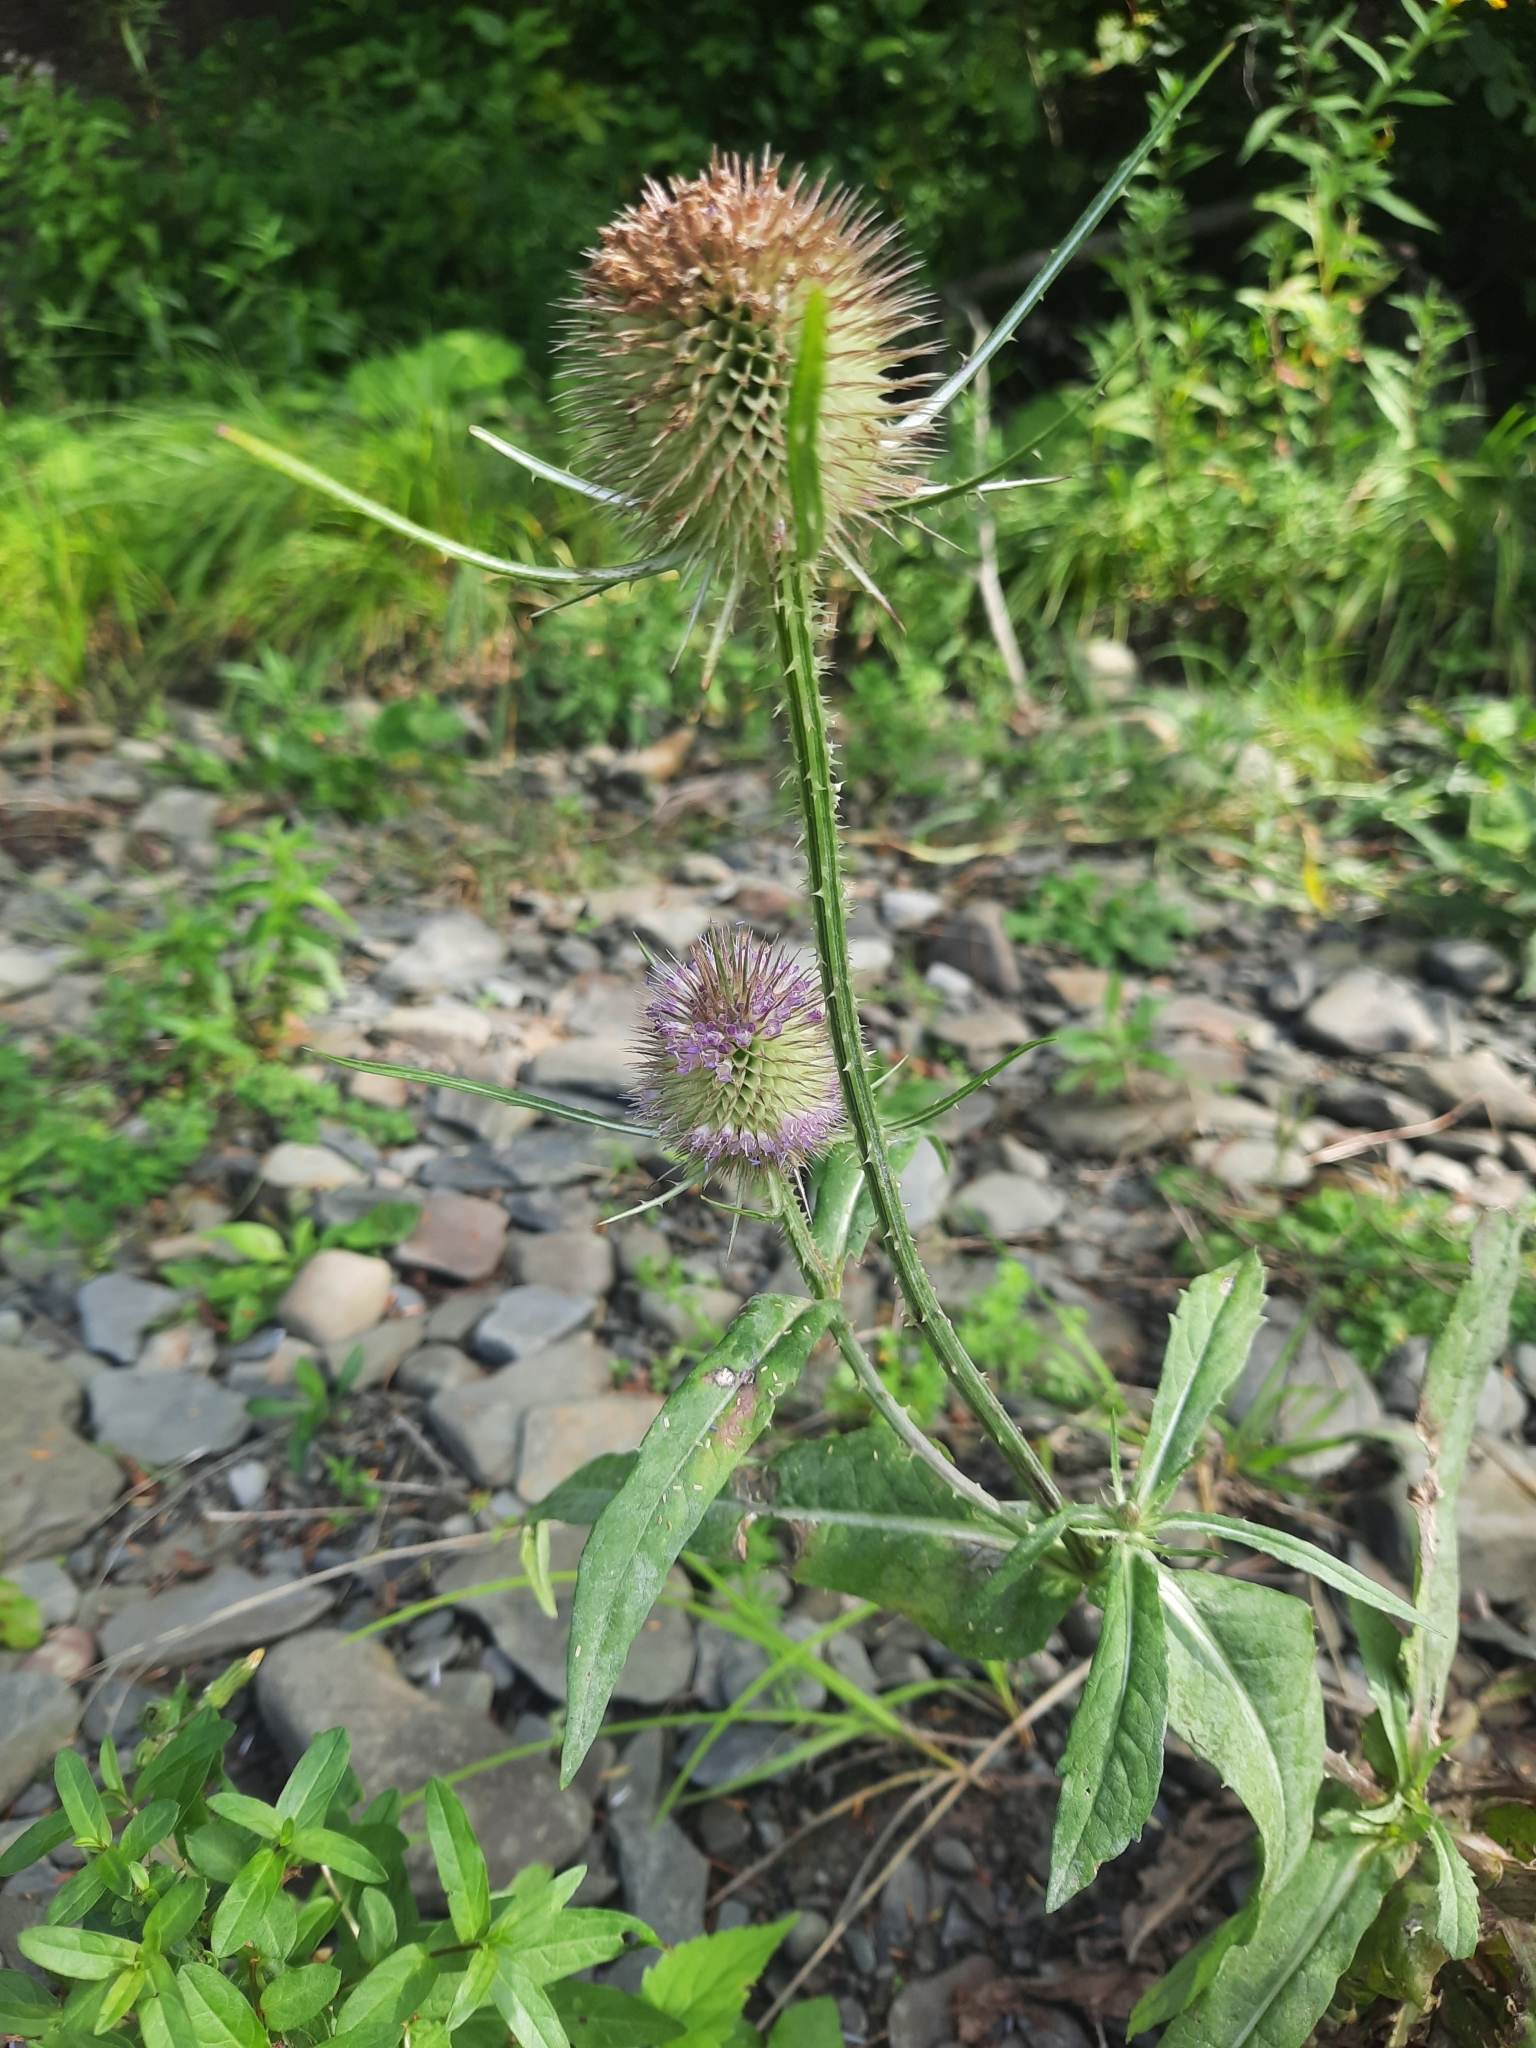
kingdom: Plantae
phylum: Tracheophyta
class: Magnoliopsida
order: Dipsacales
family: Caprifoliaceae
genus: Dipsacus
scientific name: Dipsacus fullonum
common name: Teasel
